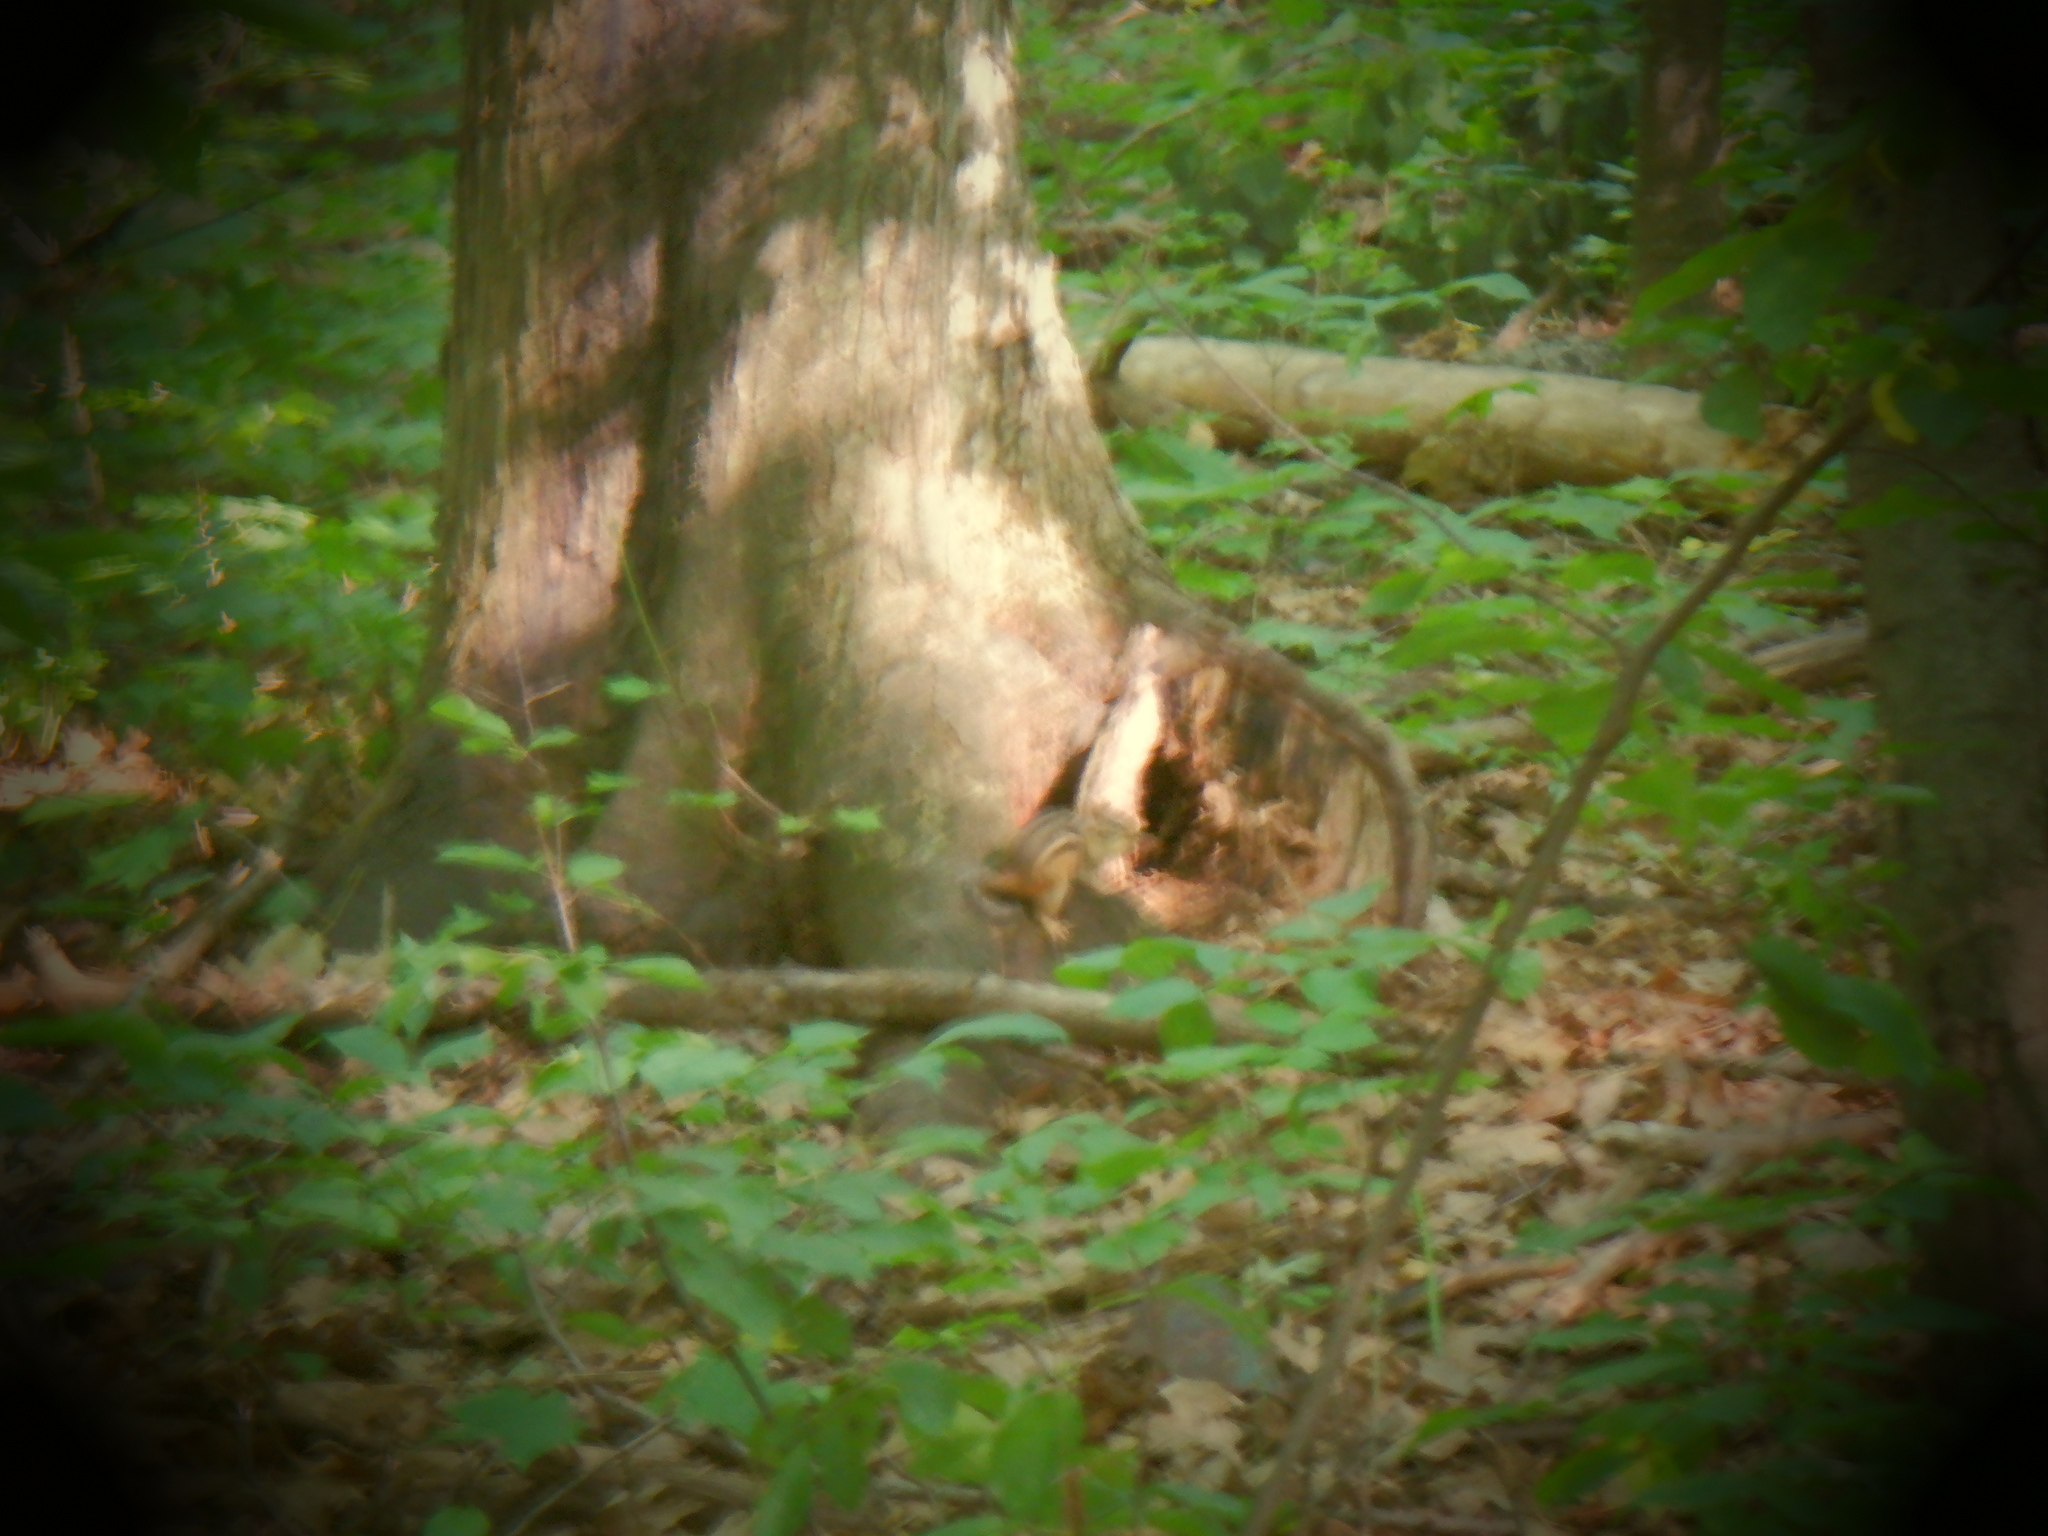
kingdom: Animalia
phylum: Chordata
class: Mammalia
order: Rodentia
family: Sciuridae
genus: Tamias
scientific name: Tamias striatus
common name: Eastern chipmunk
